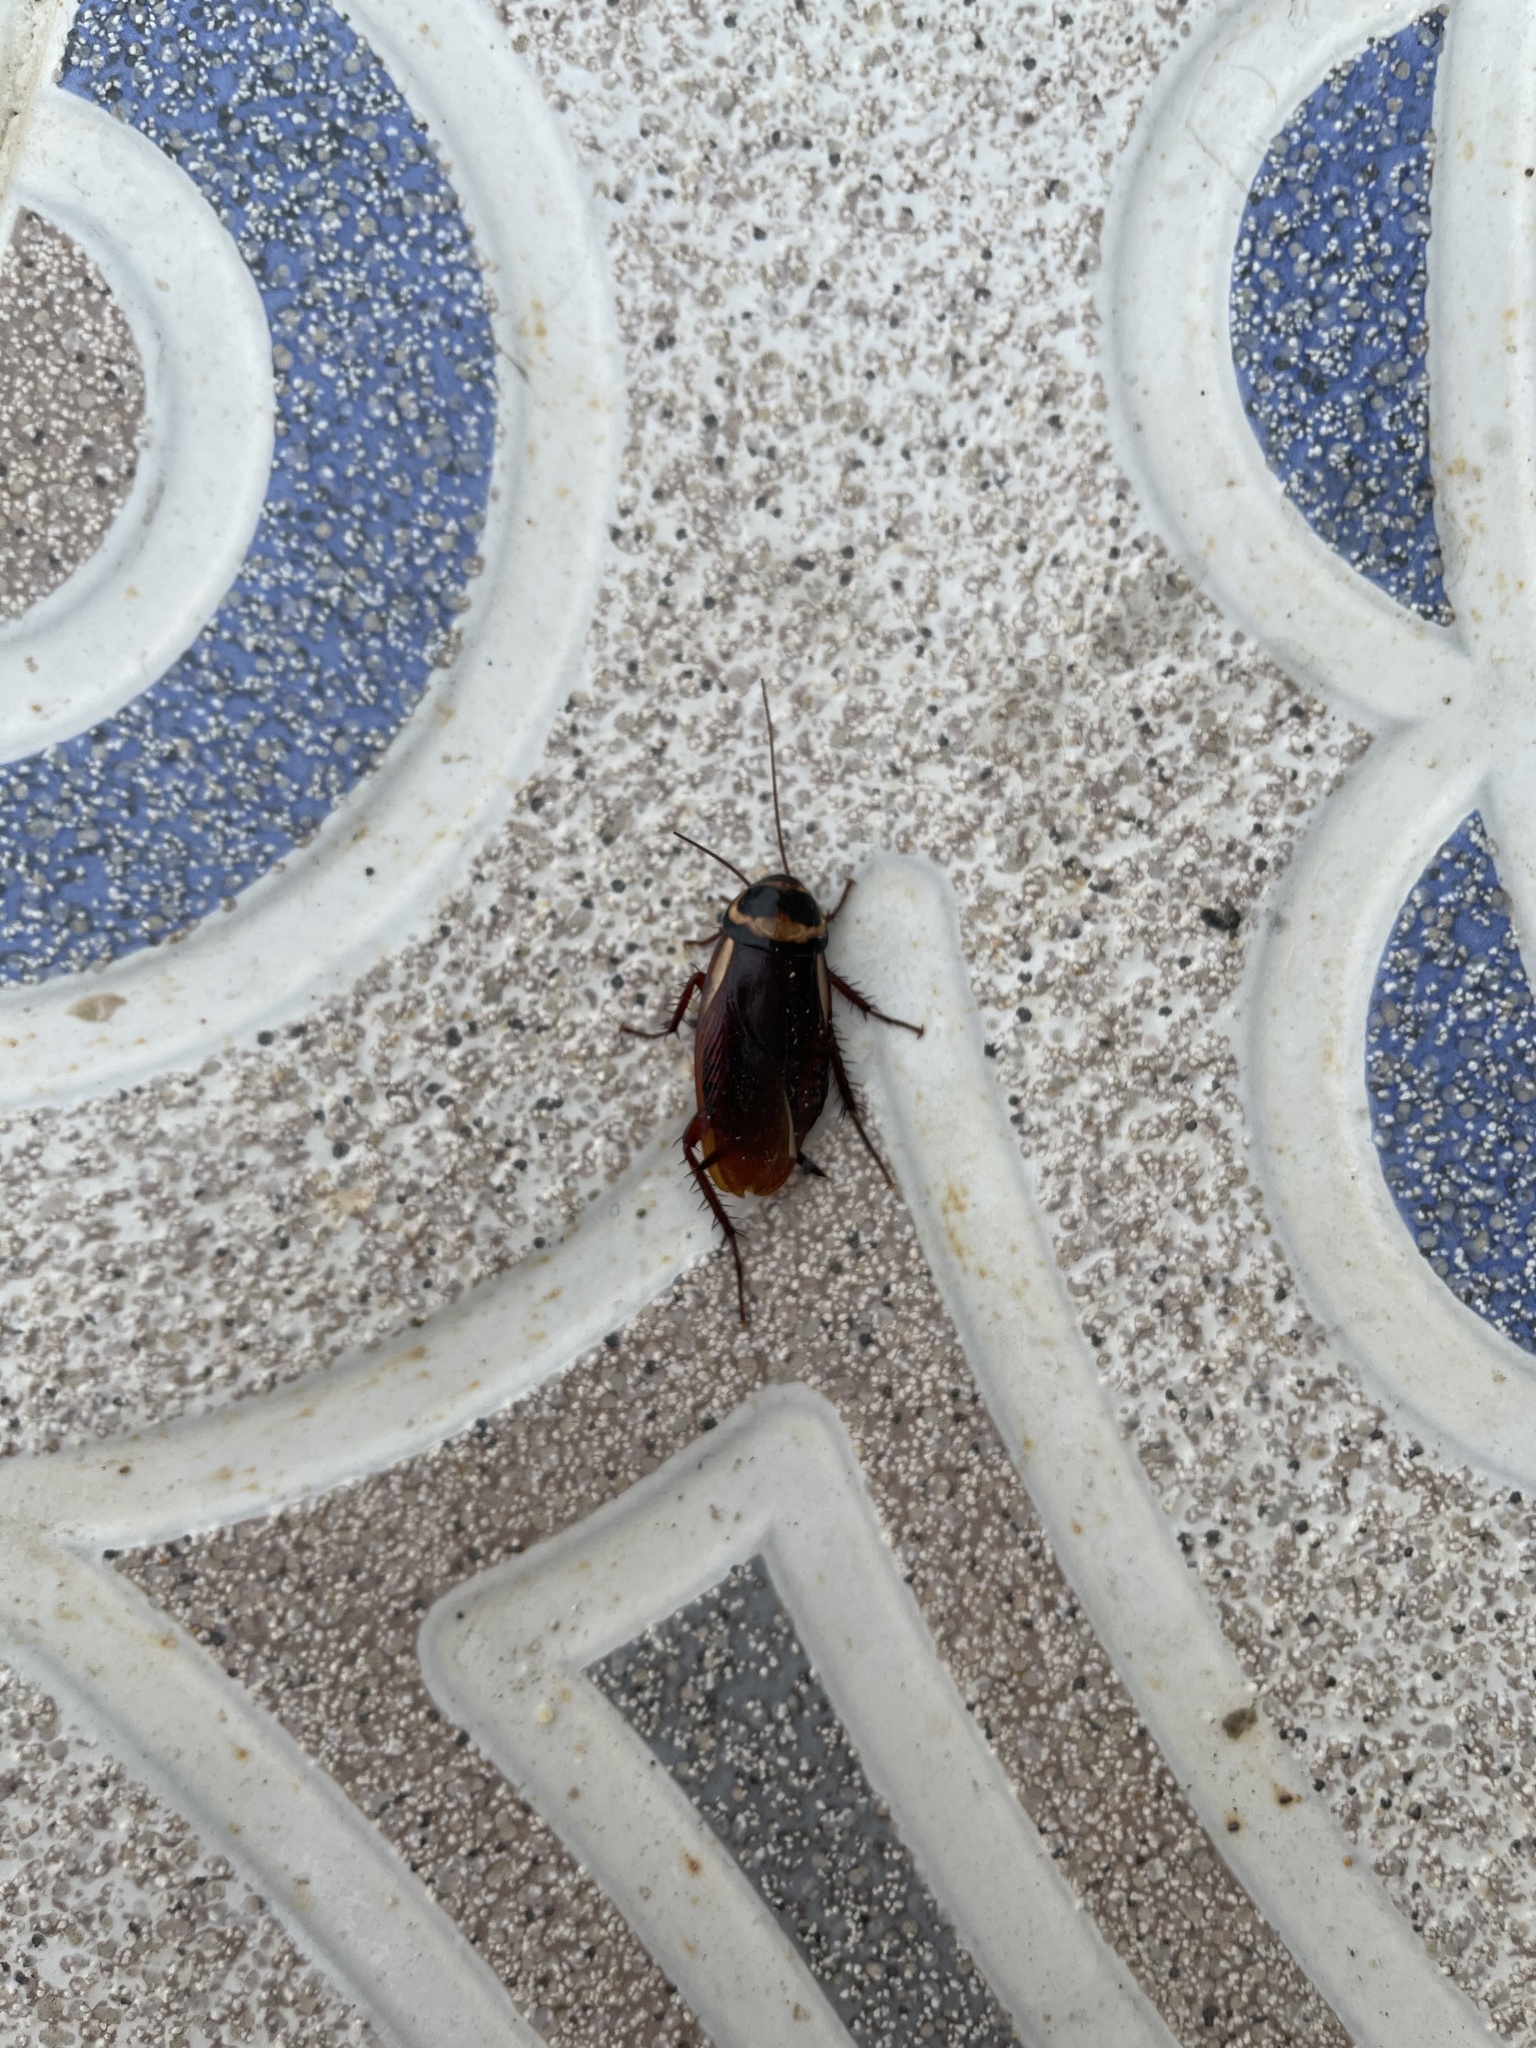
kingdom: Animalia
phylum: Arthropoda
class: Insecta
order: Blattodea
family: Blattidae
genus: Periplaneta
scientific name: Periplaneta australasiae
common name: Australian cockroach
